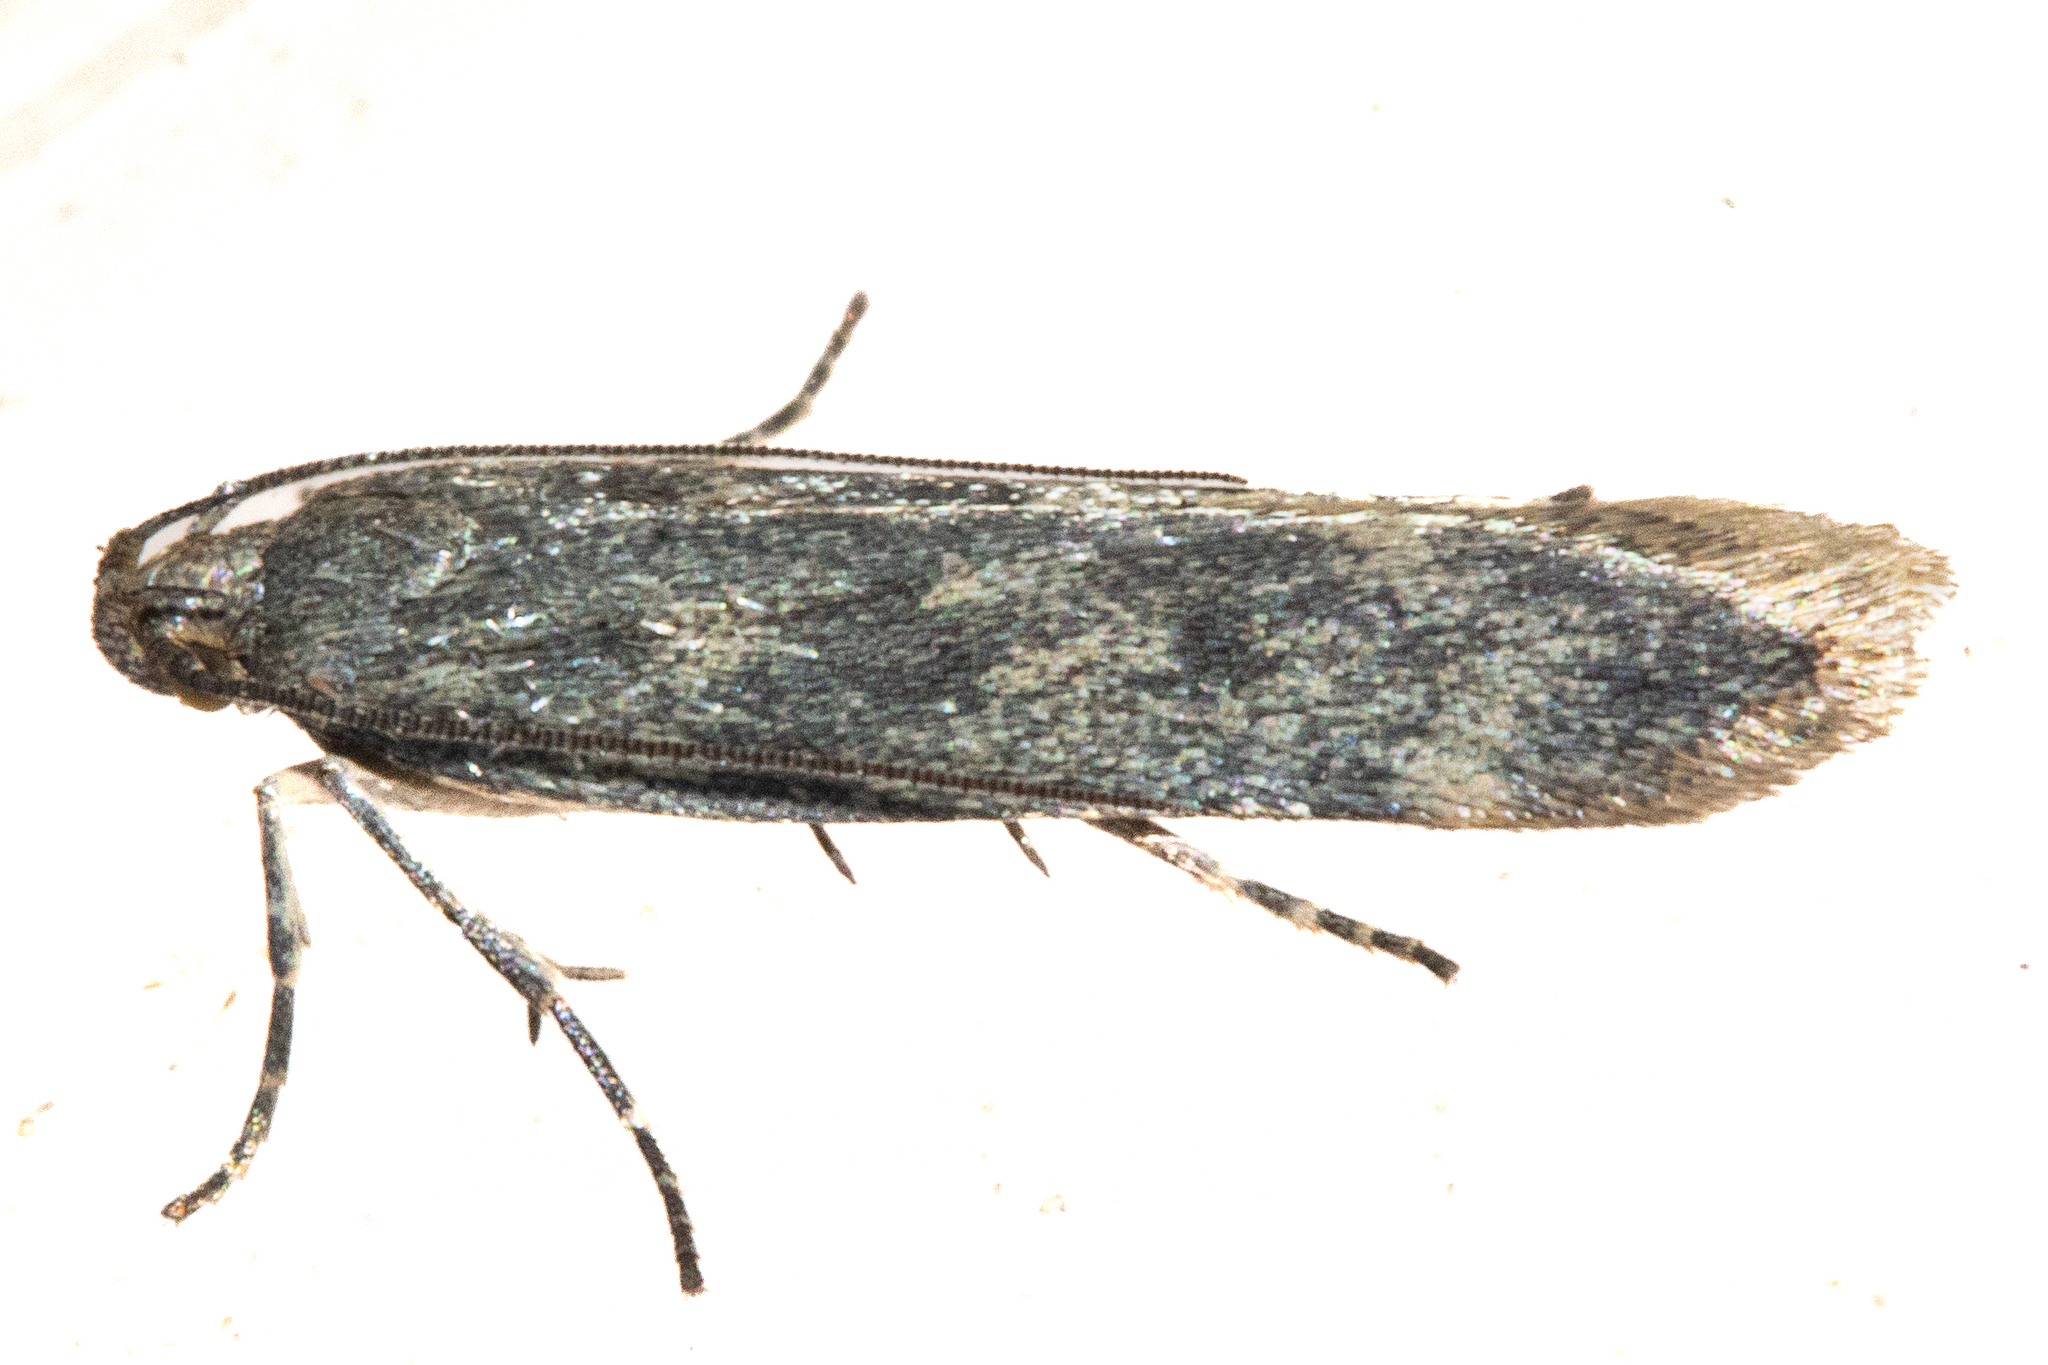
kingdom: Animalia
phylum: Arthropoda
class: Insecta
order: Lepidoptera
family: Gelechiidae
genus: Kiwaia
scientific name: Kiwaia lithodes
